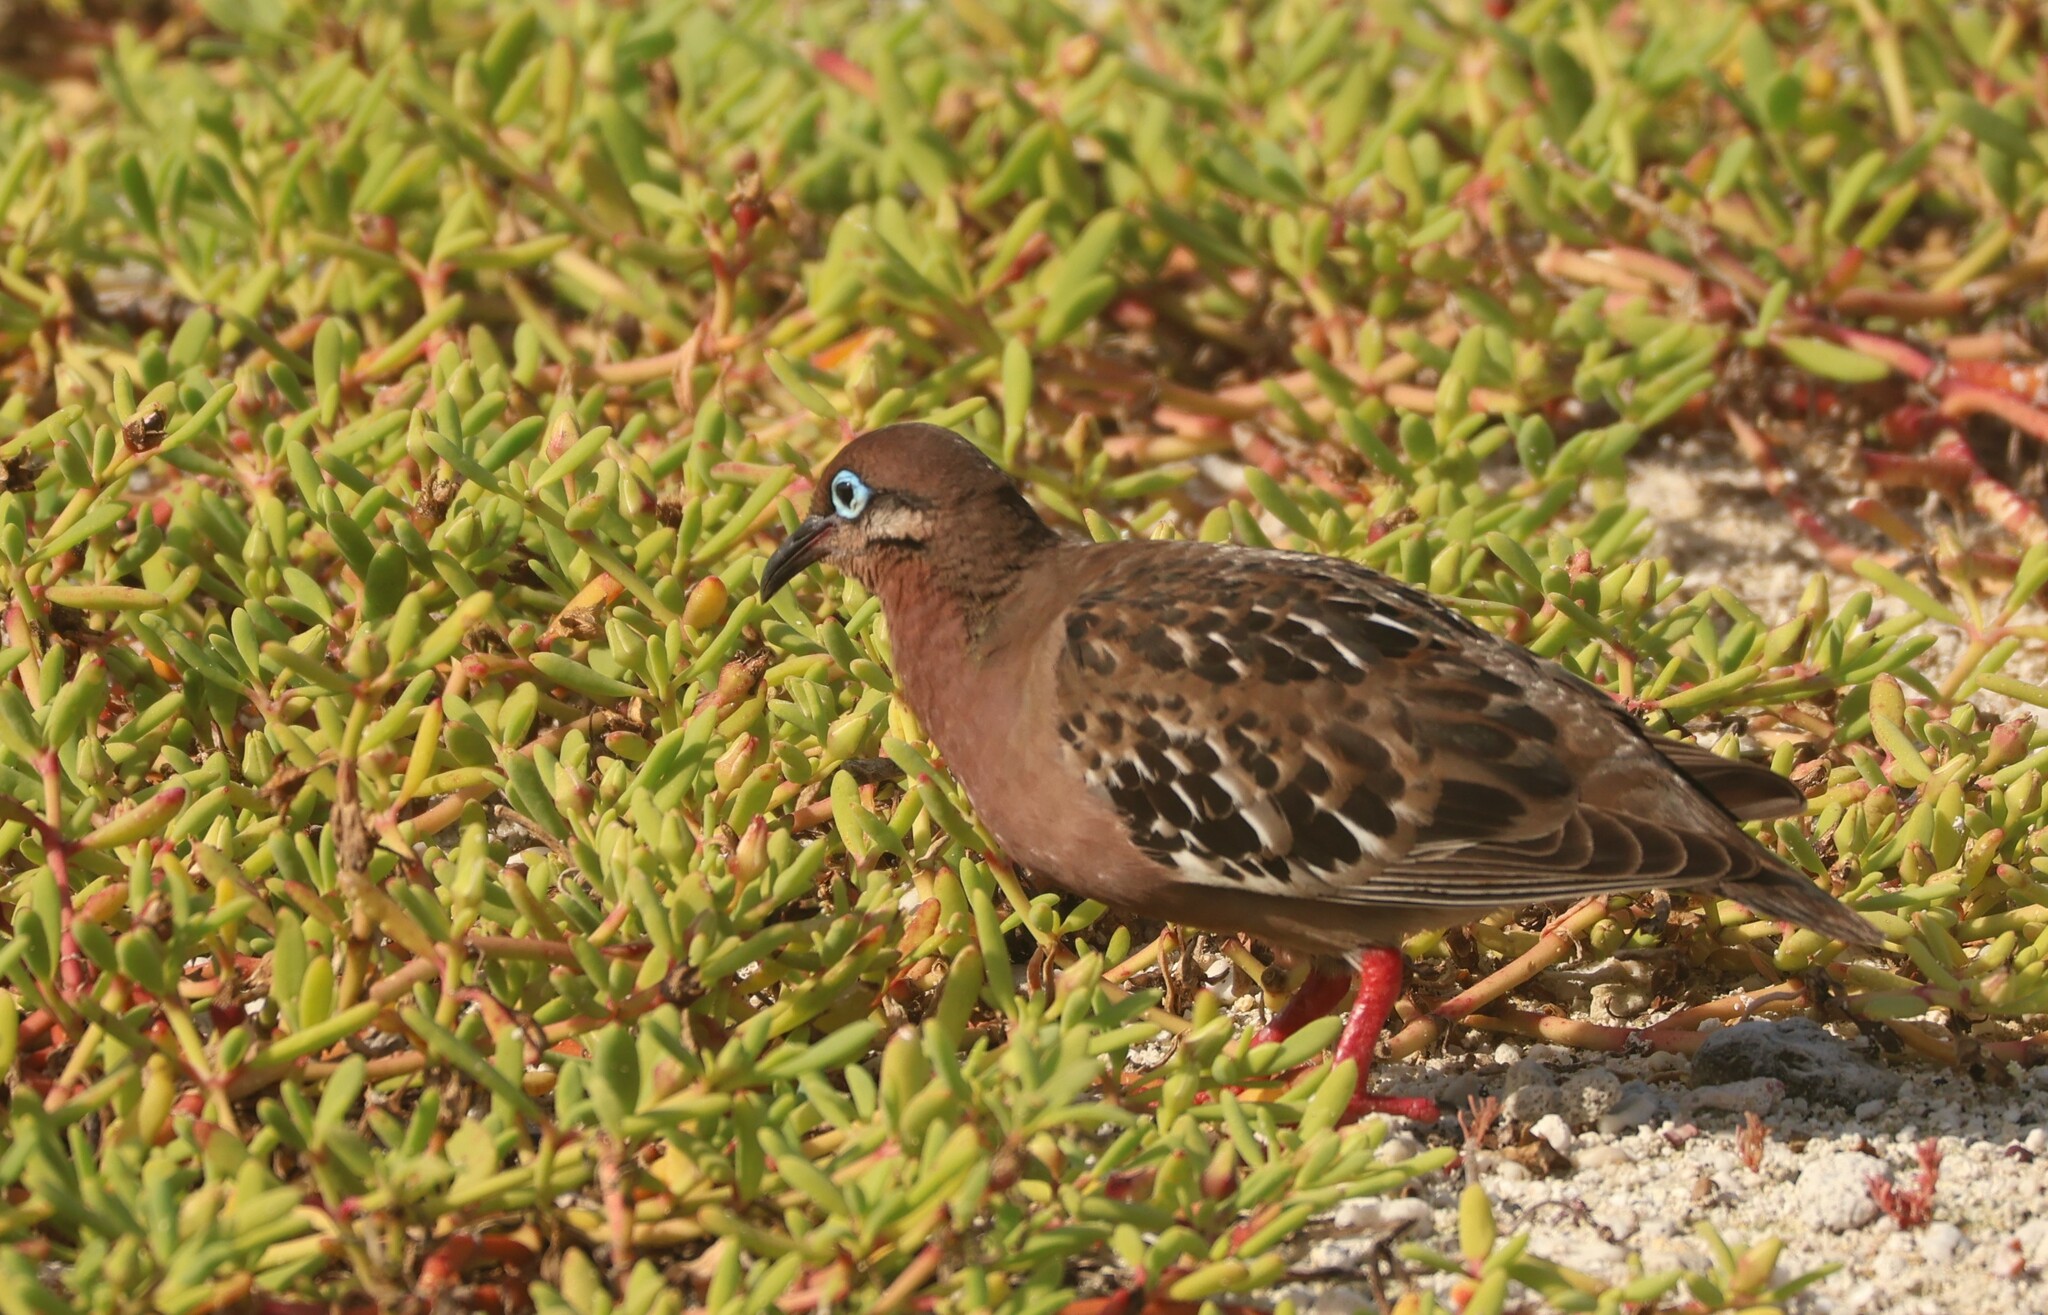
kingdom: Animalia
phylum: Chordata
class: Aves
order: Columbiformes
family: Columbidae
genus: Zenaida
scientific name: Zenaida galapagoensis
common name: Galapagos dove
